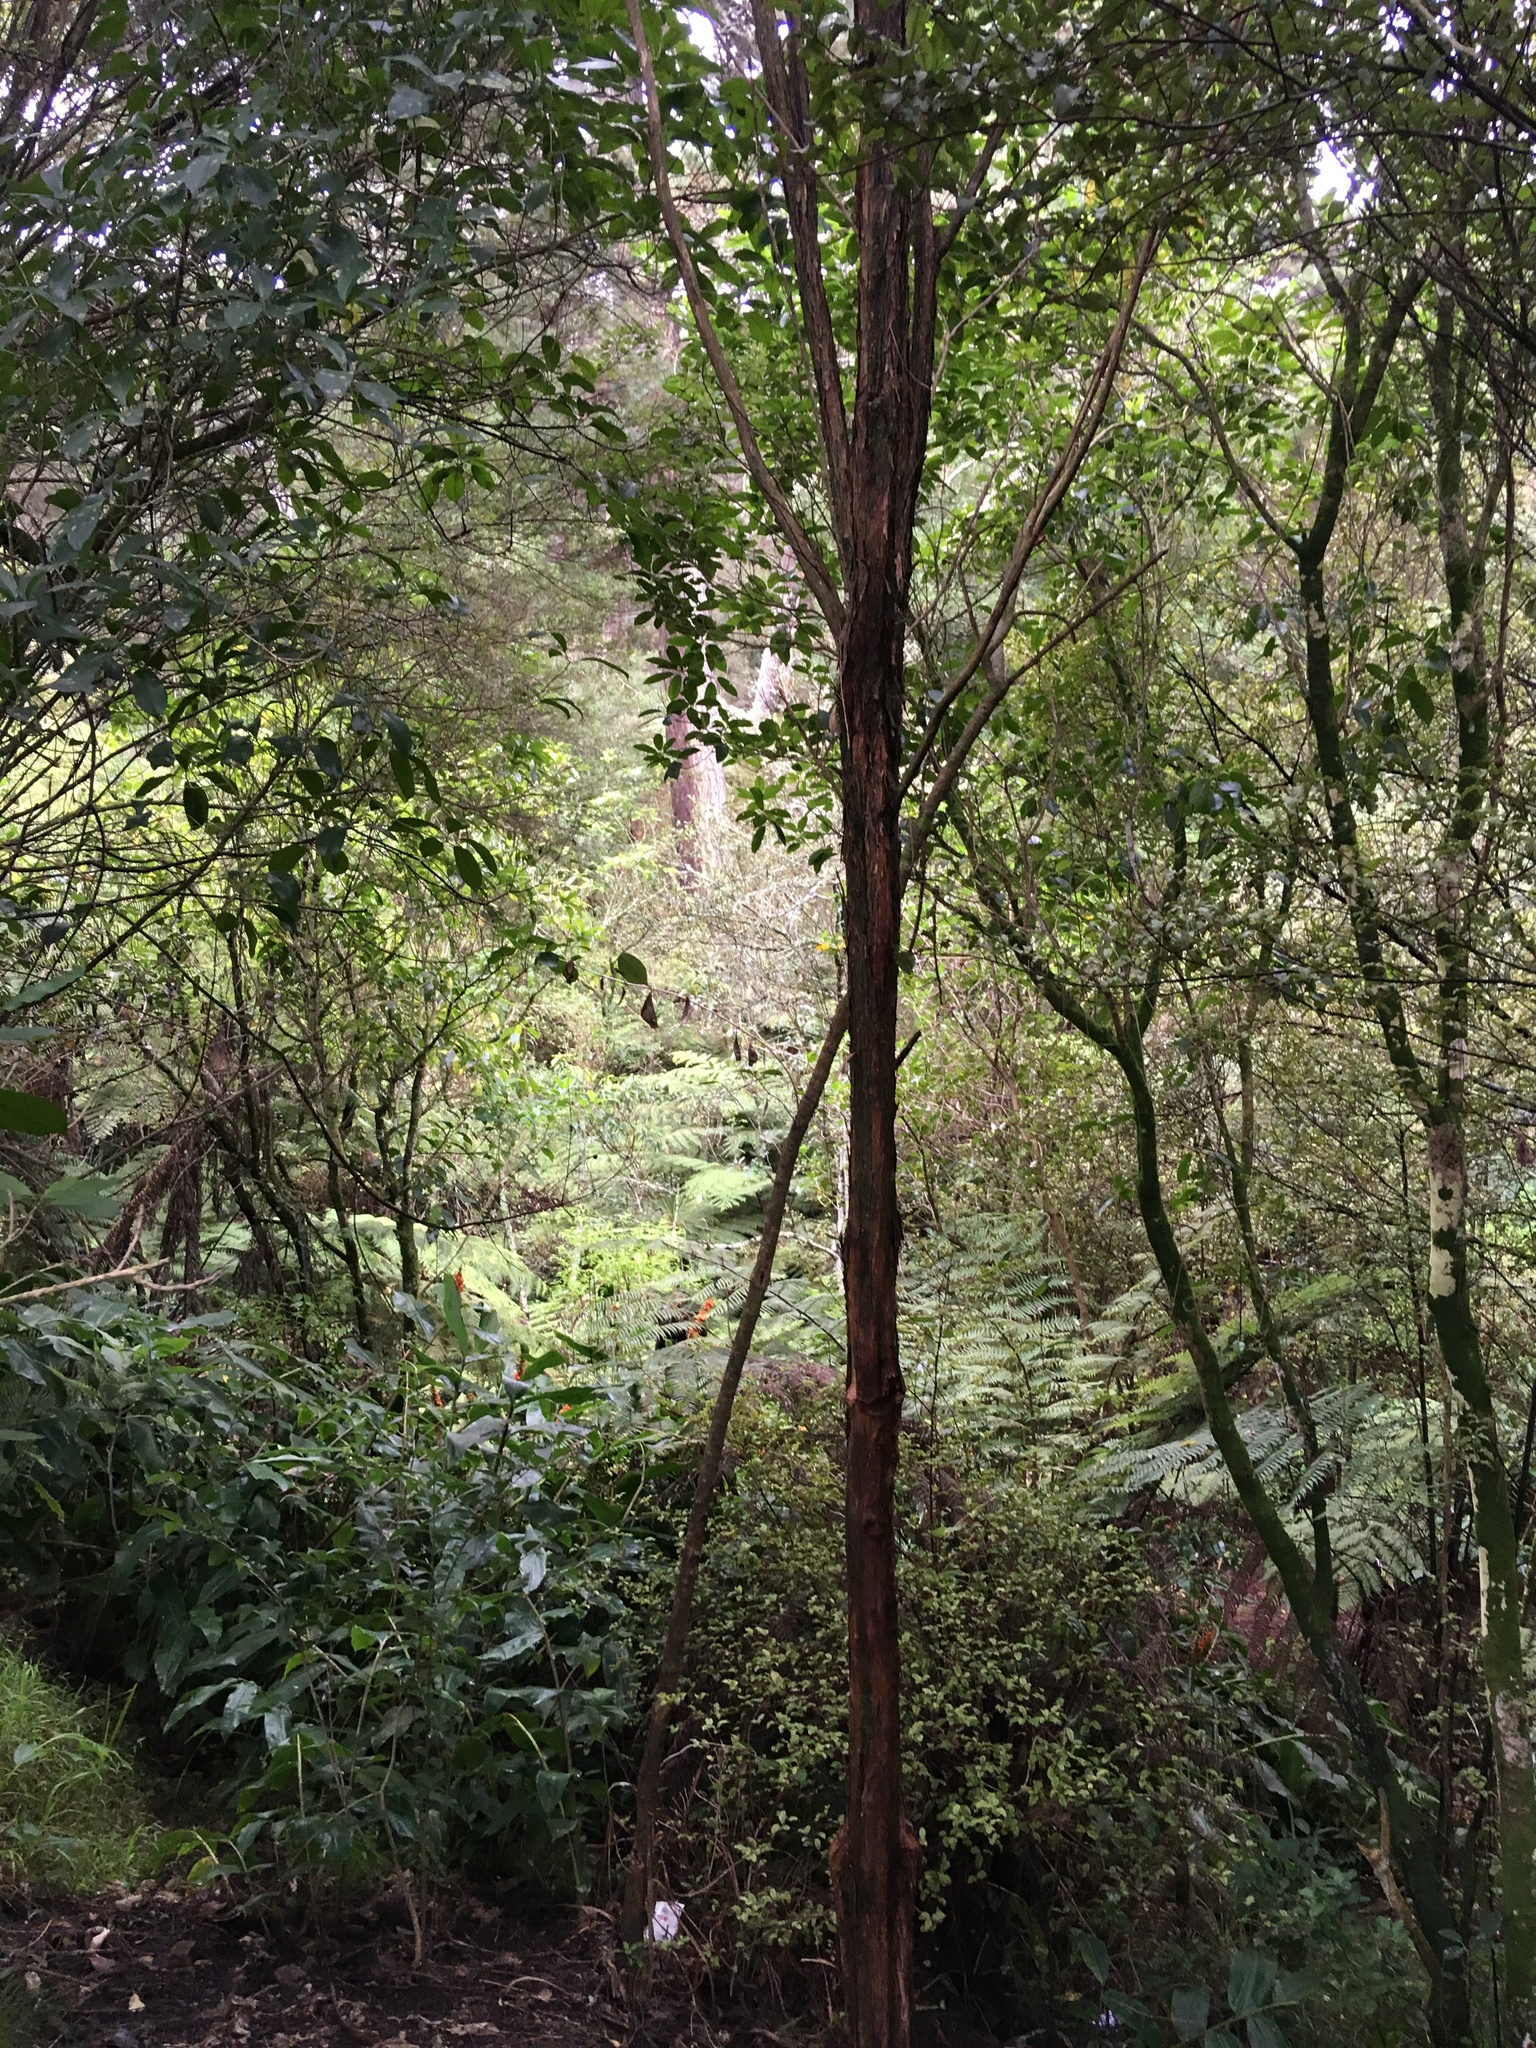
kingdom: Plantae
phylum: Tracheophyta
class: Liliopsida
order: Zingiberales
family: Zingiberaceae
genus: Hedychium
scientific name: Hedychium gardnerianum
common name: Himalayan ginger
